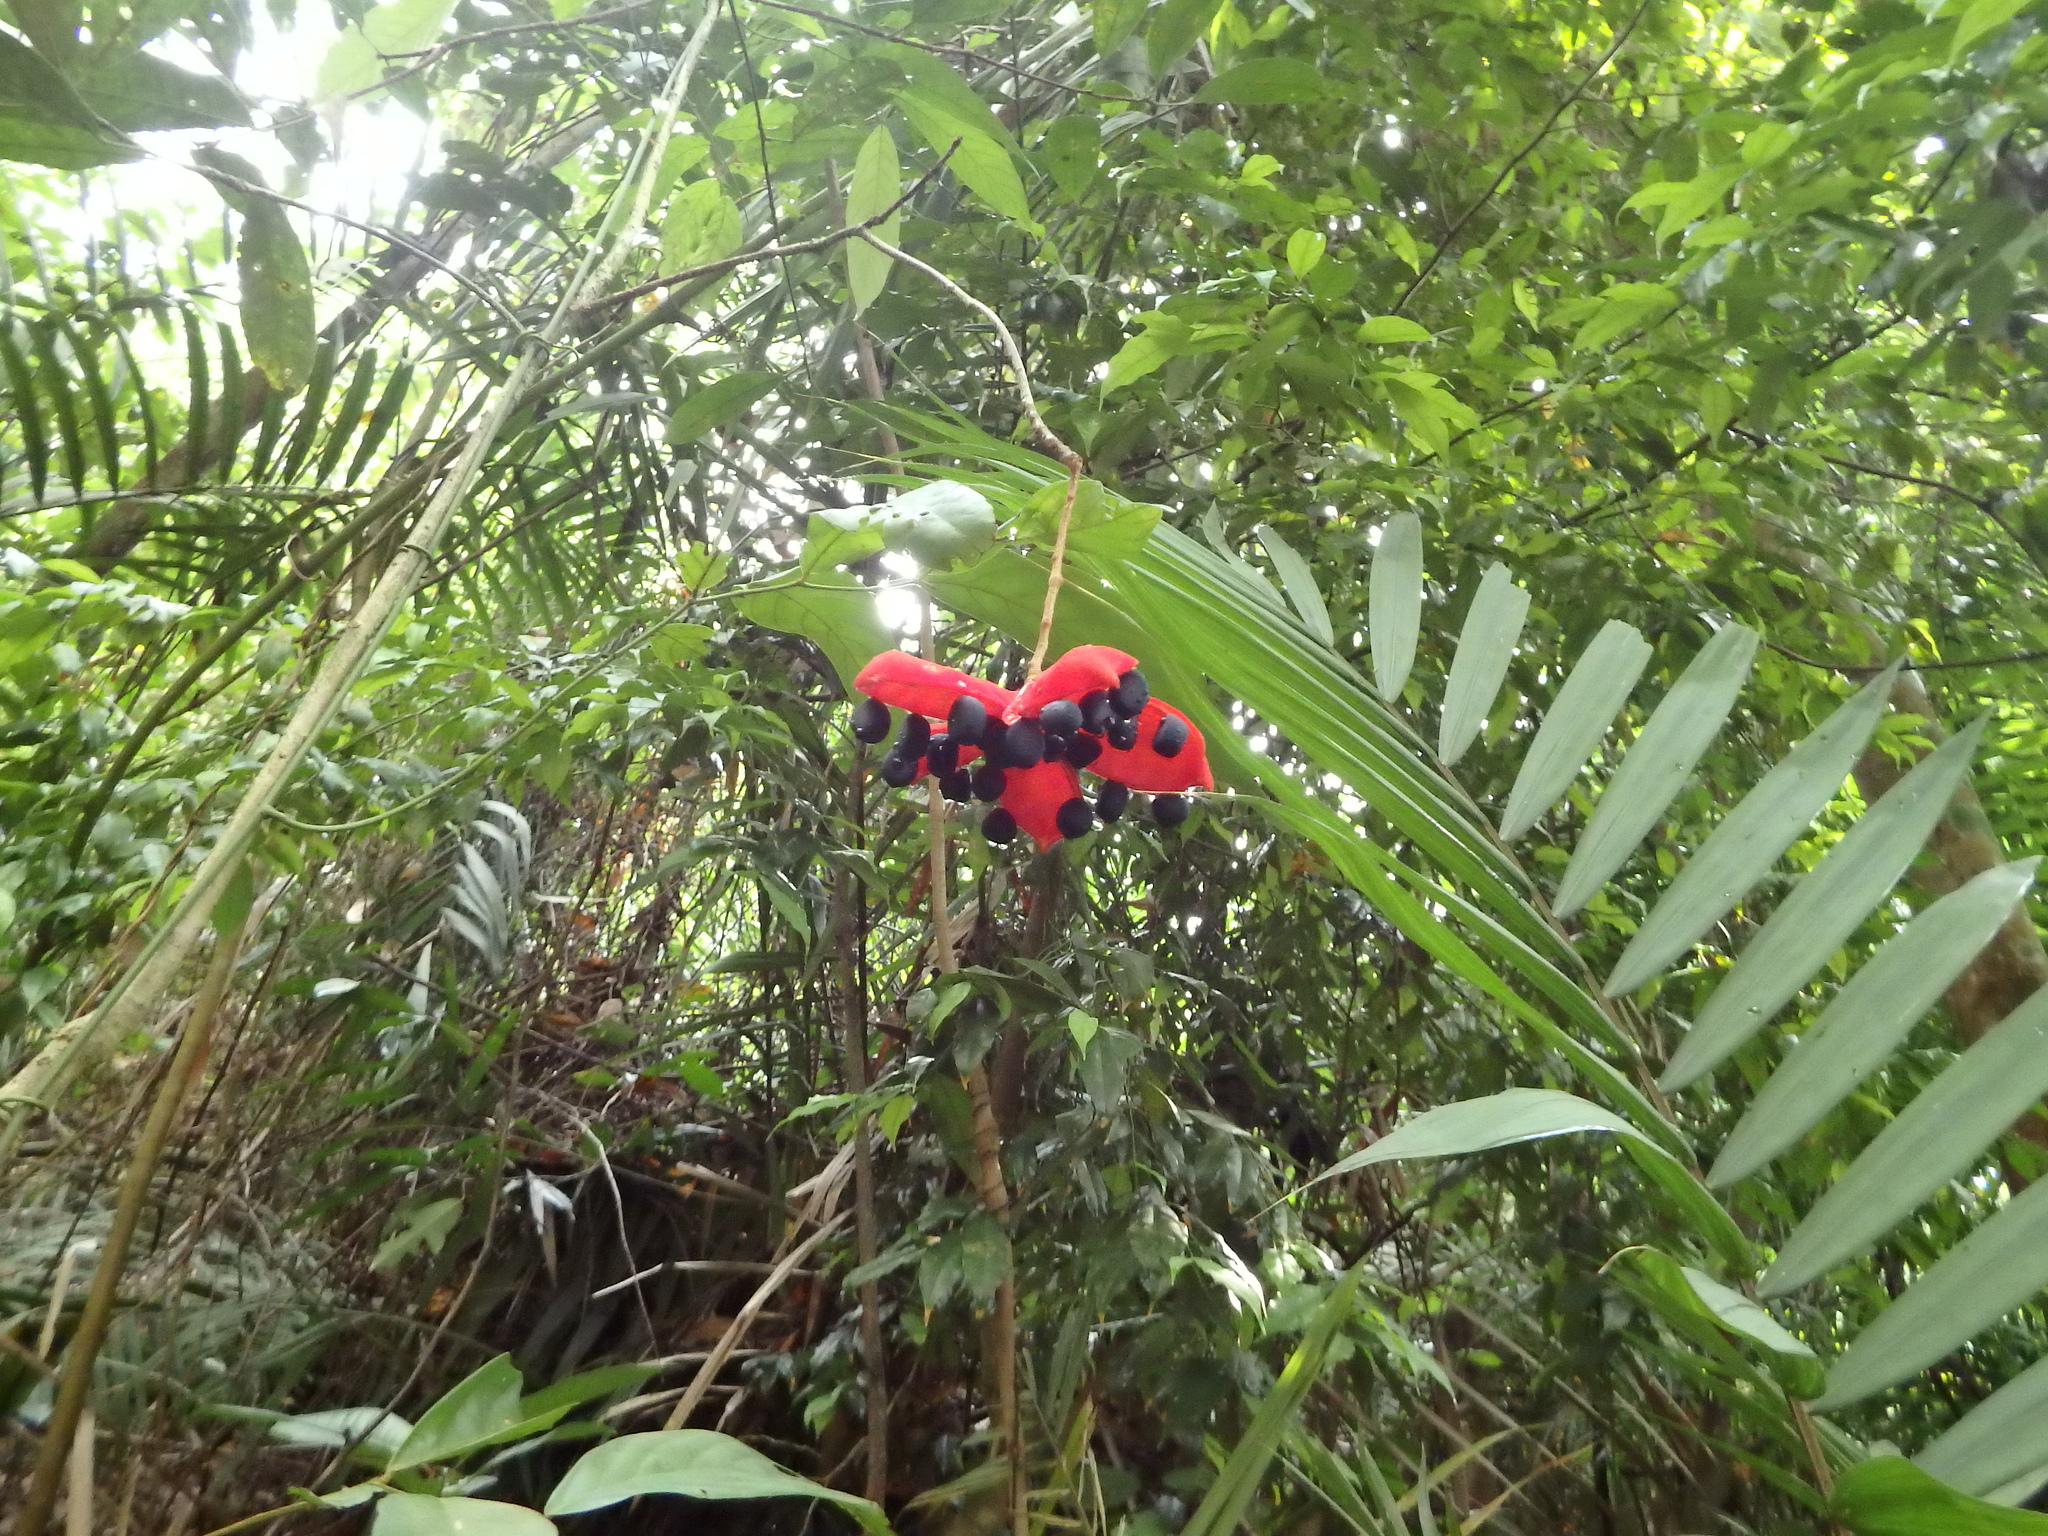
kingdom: Plantae
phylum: Tracheophyta
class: Magnoliopsida
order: Malvales
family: Malvaceae
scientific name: Malvaceae
